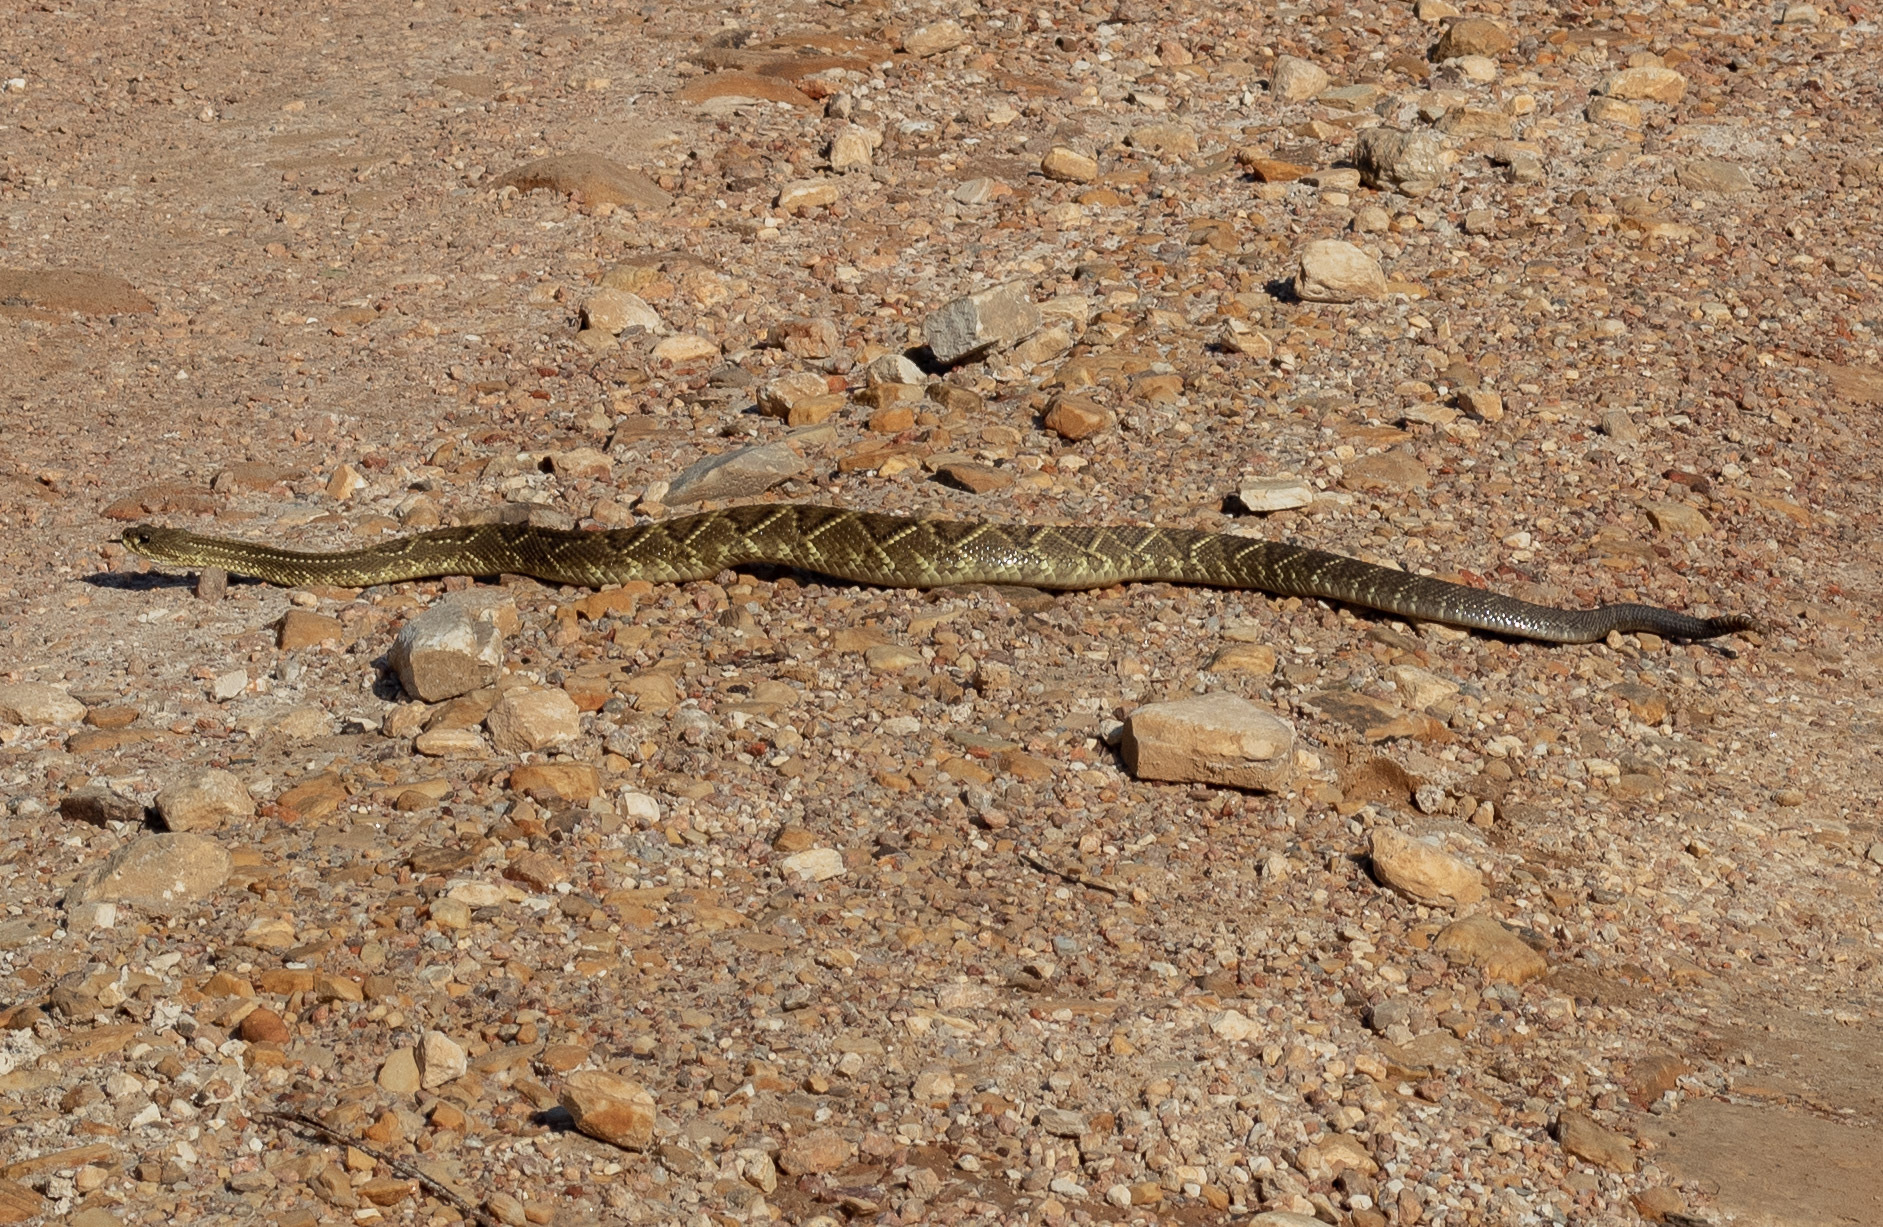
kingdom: Animalia
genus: Crotalus
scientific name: Crotalus durissus
